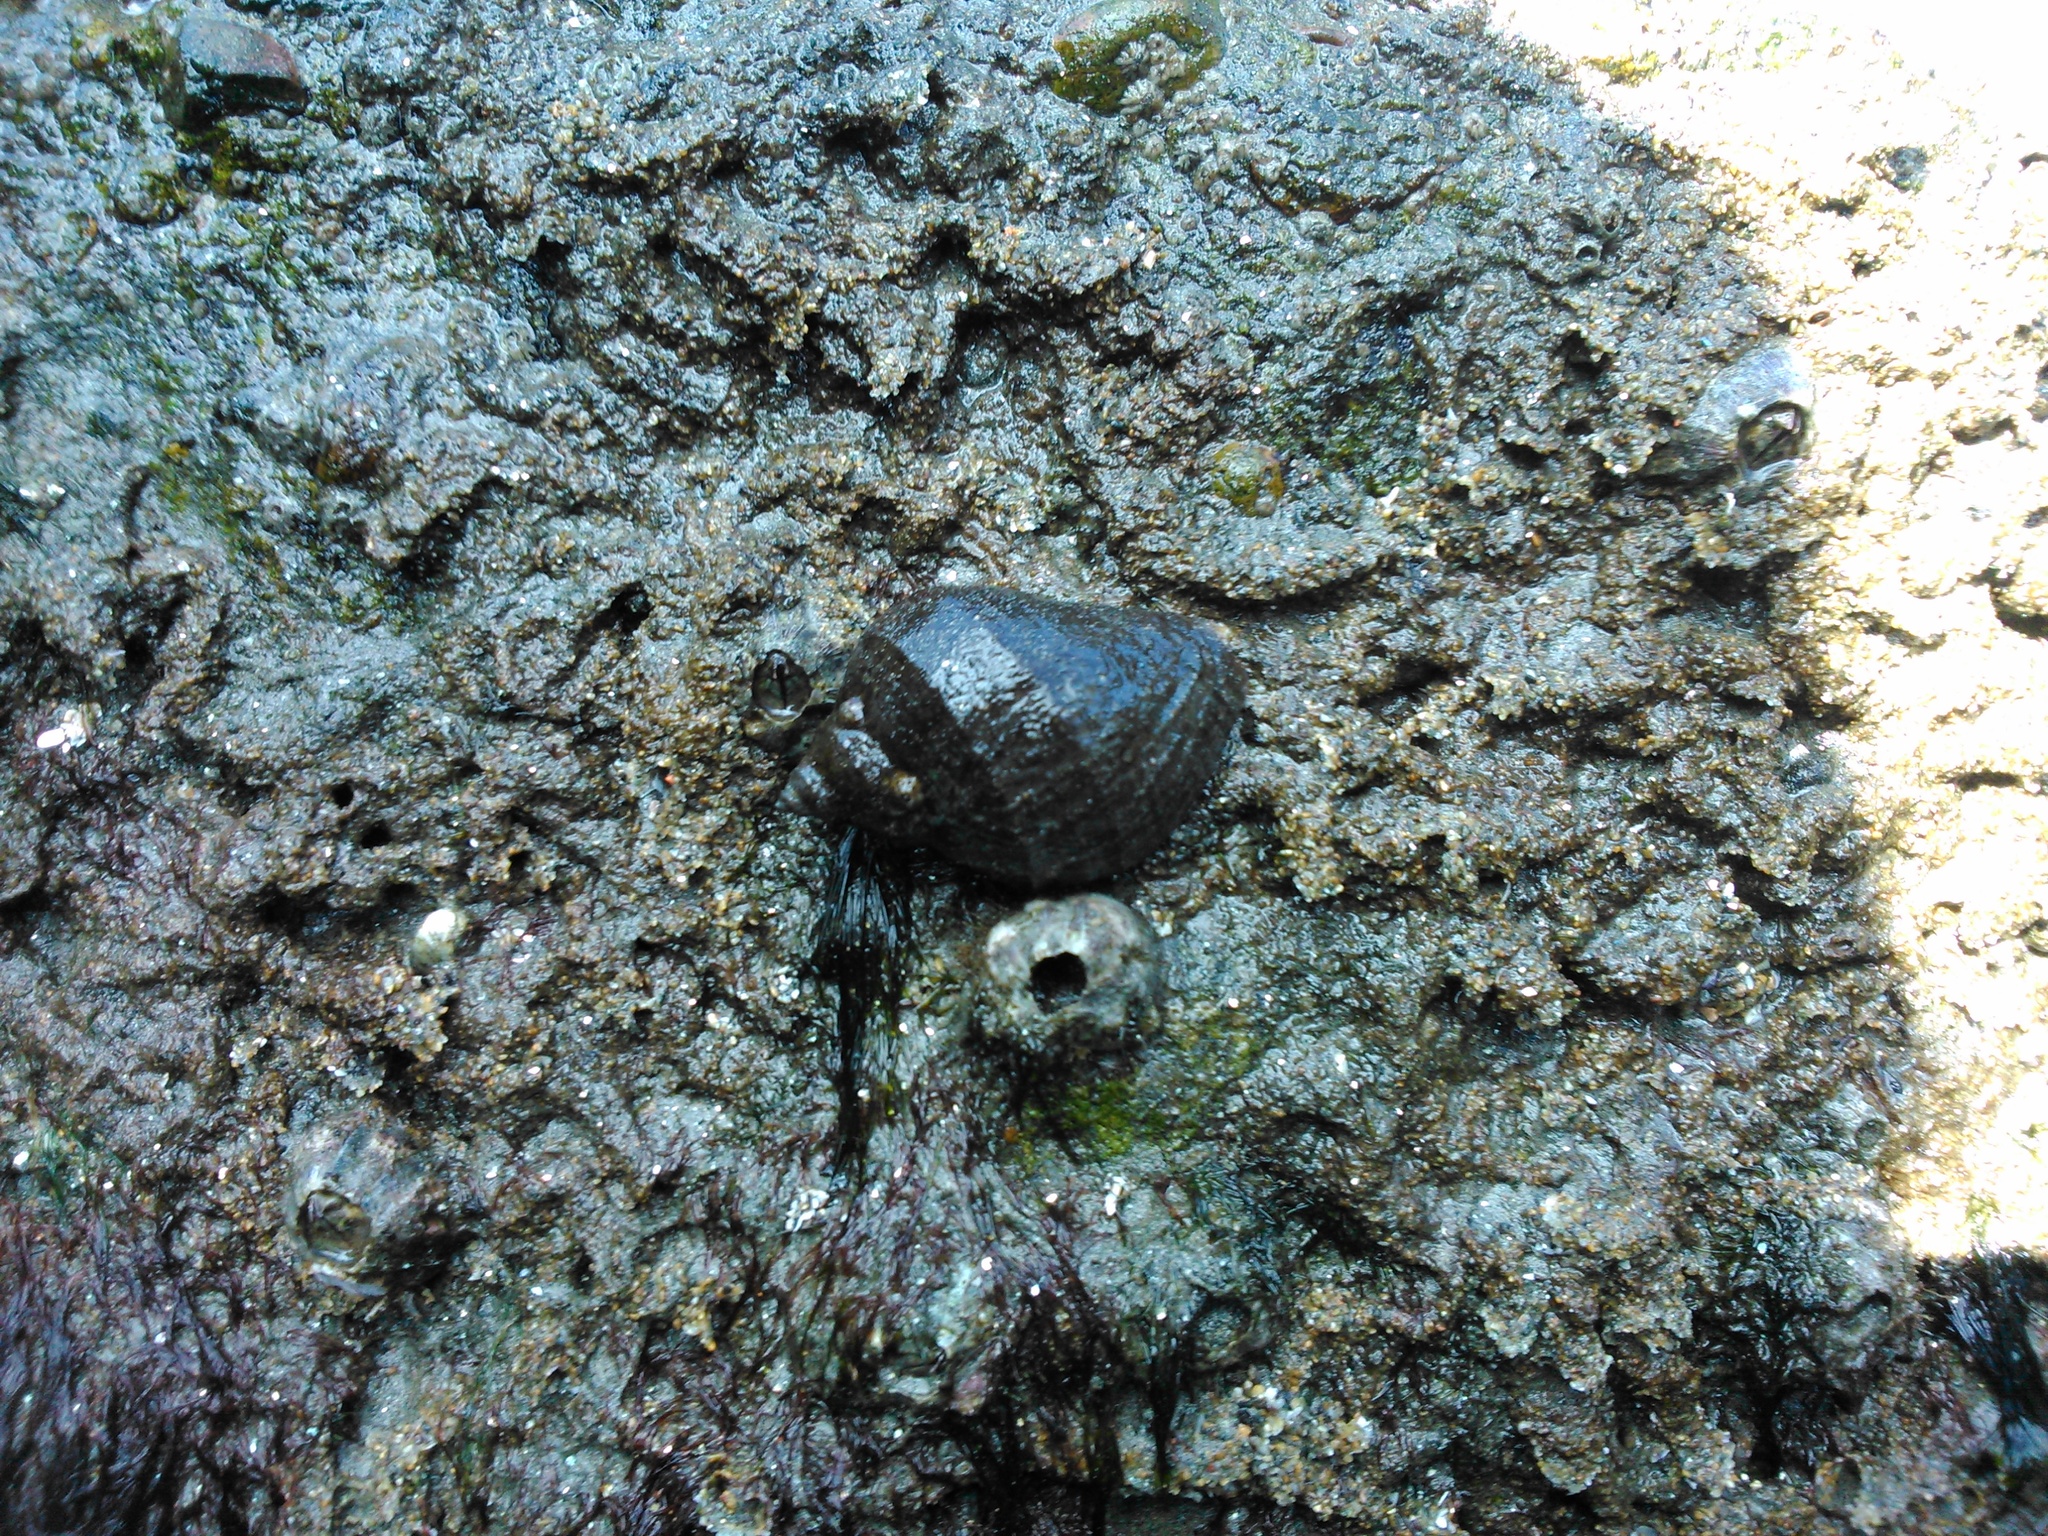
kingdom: Animalia
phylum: Mollusca
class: Gastropoda
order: Neogastropoda
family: Muricidae
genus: Thaisella
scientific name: Thaisella chocolata
